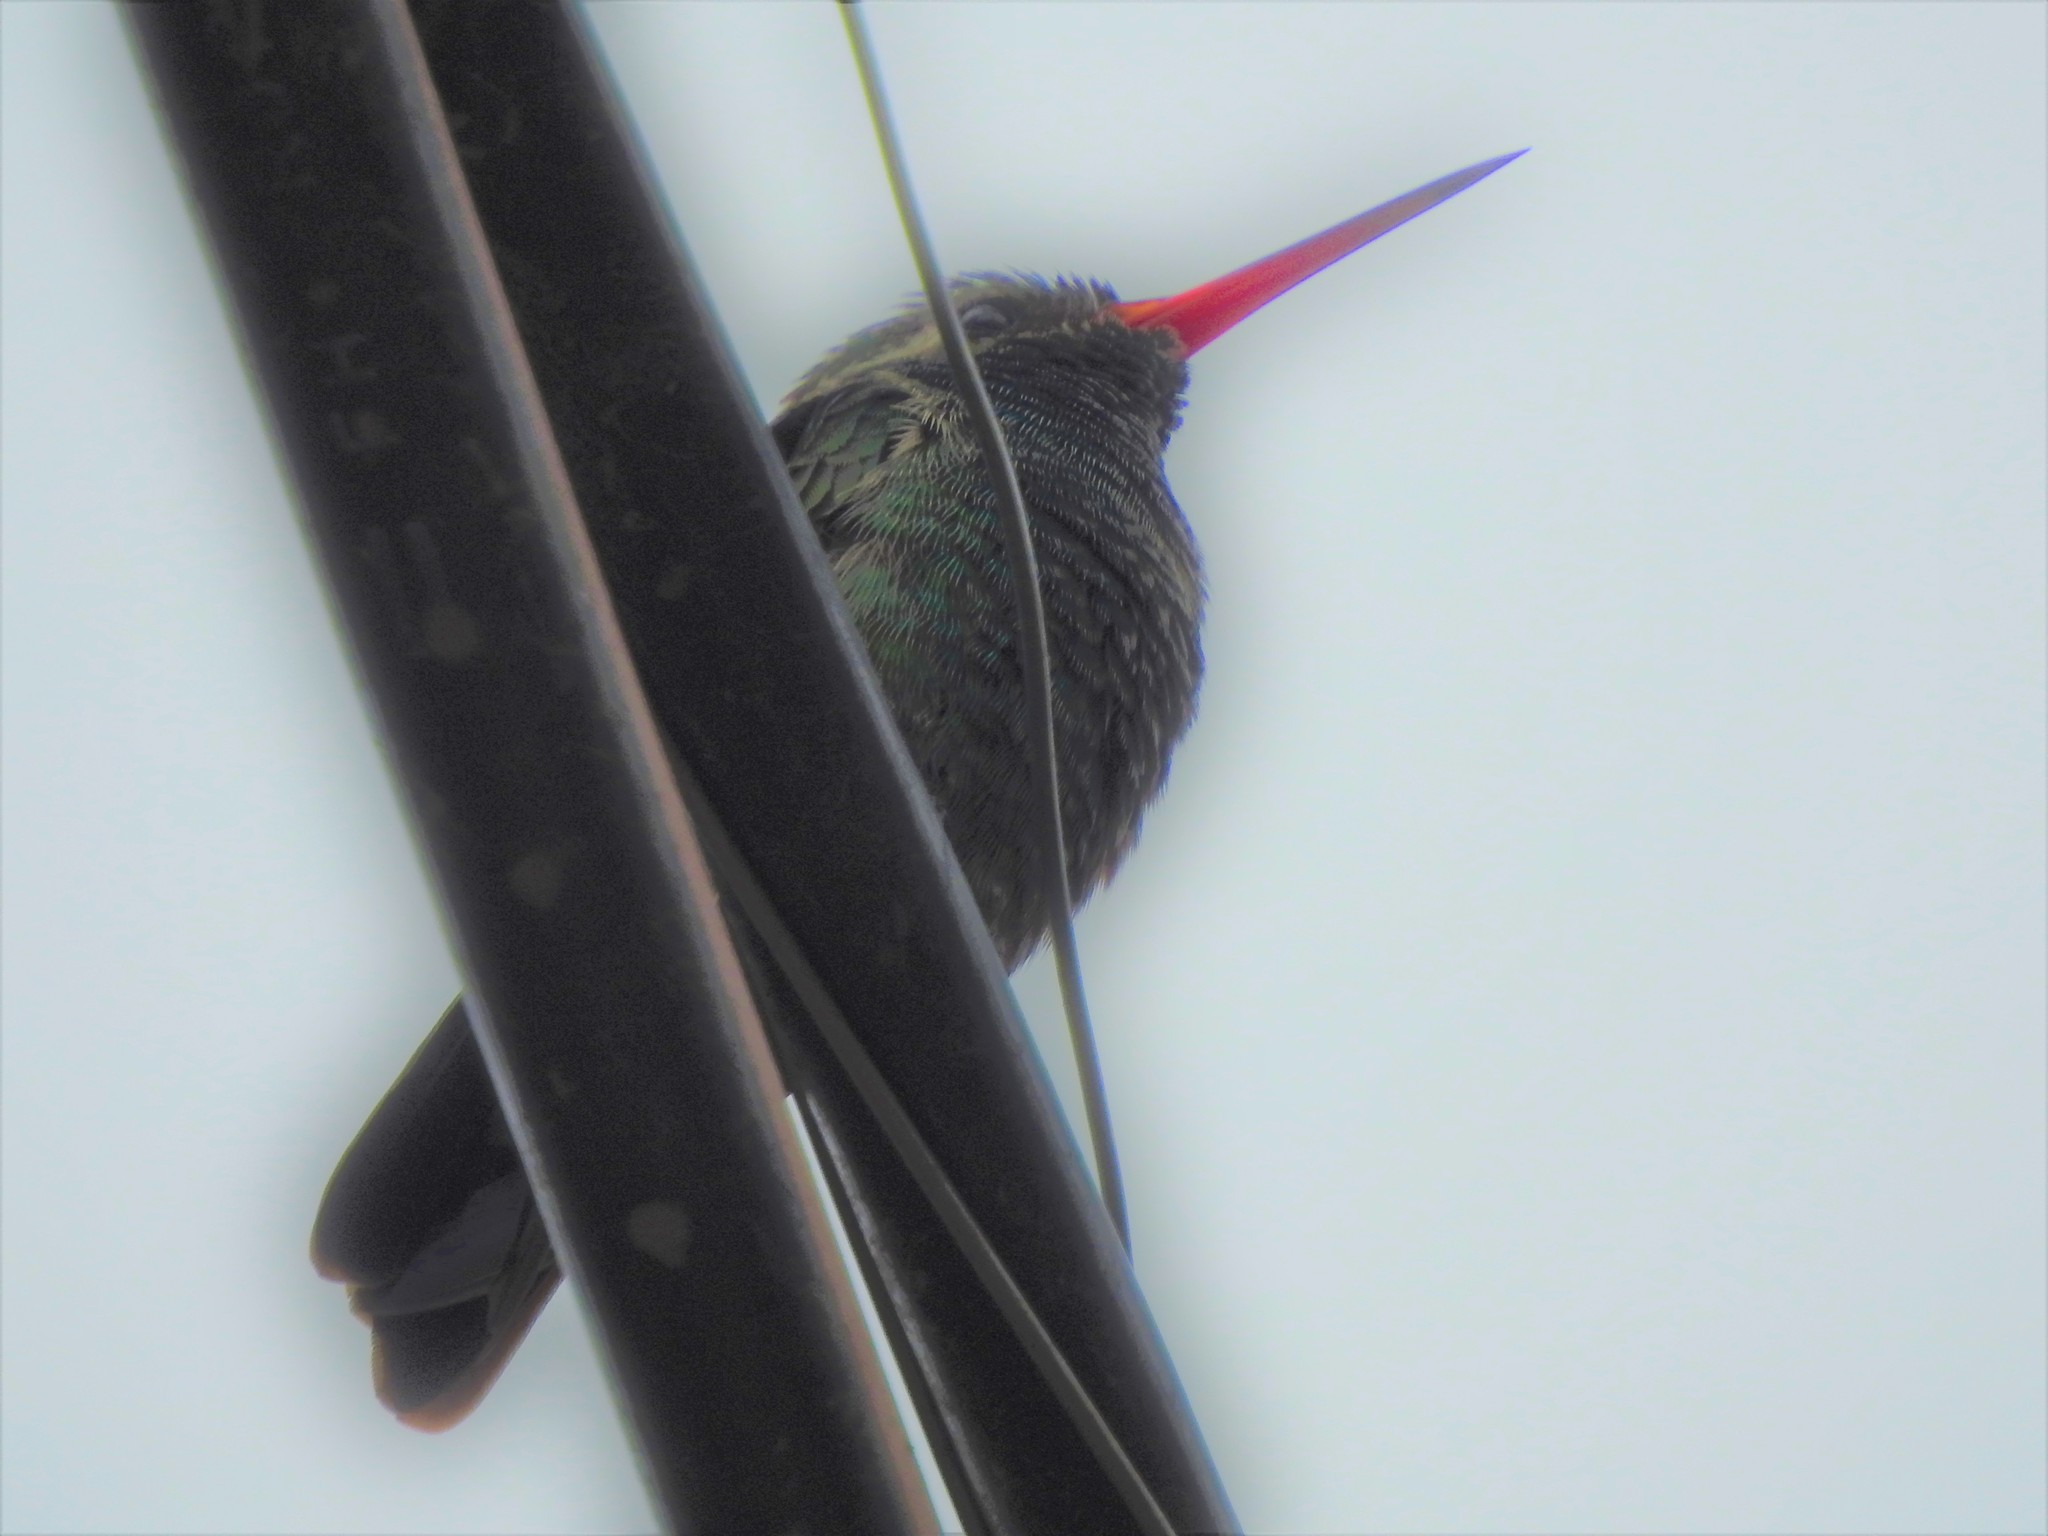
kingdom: Animalia
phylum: Chordata
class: Aves
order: Apodiformes
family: Trochilidae
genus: Cynanthus
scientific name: Cynanthus latirostris
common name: Broad-billed hummingbird
